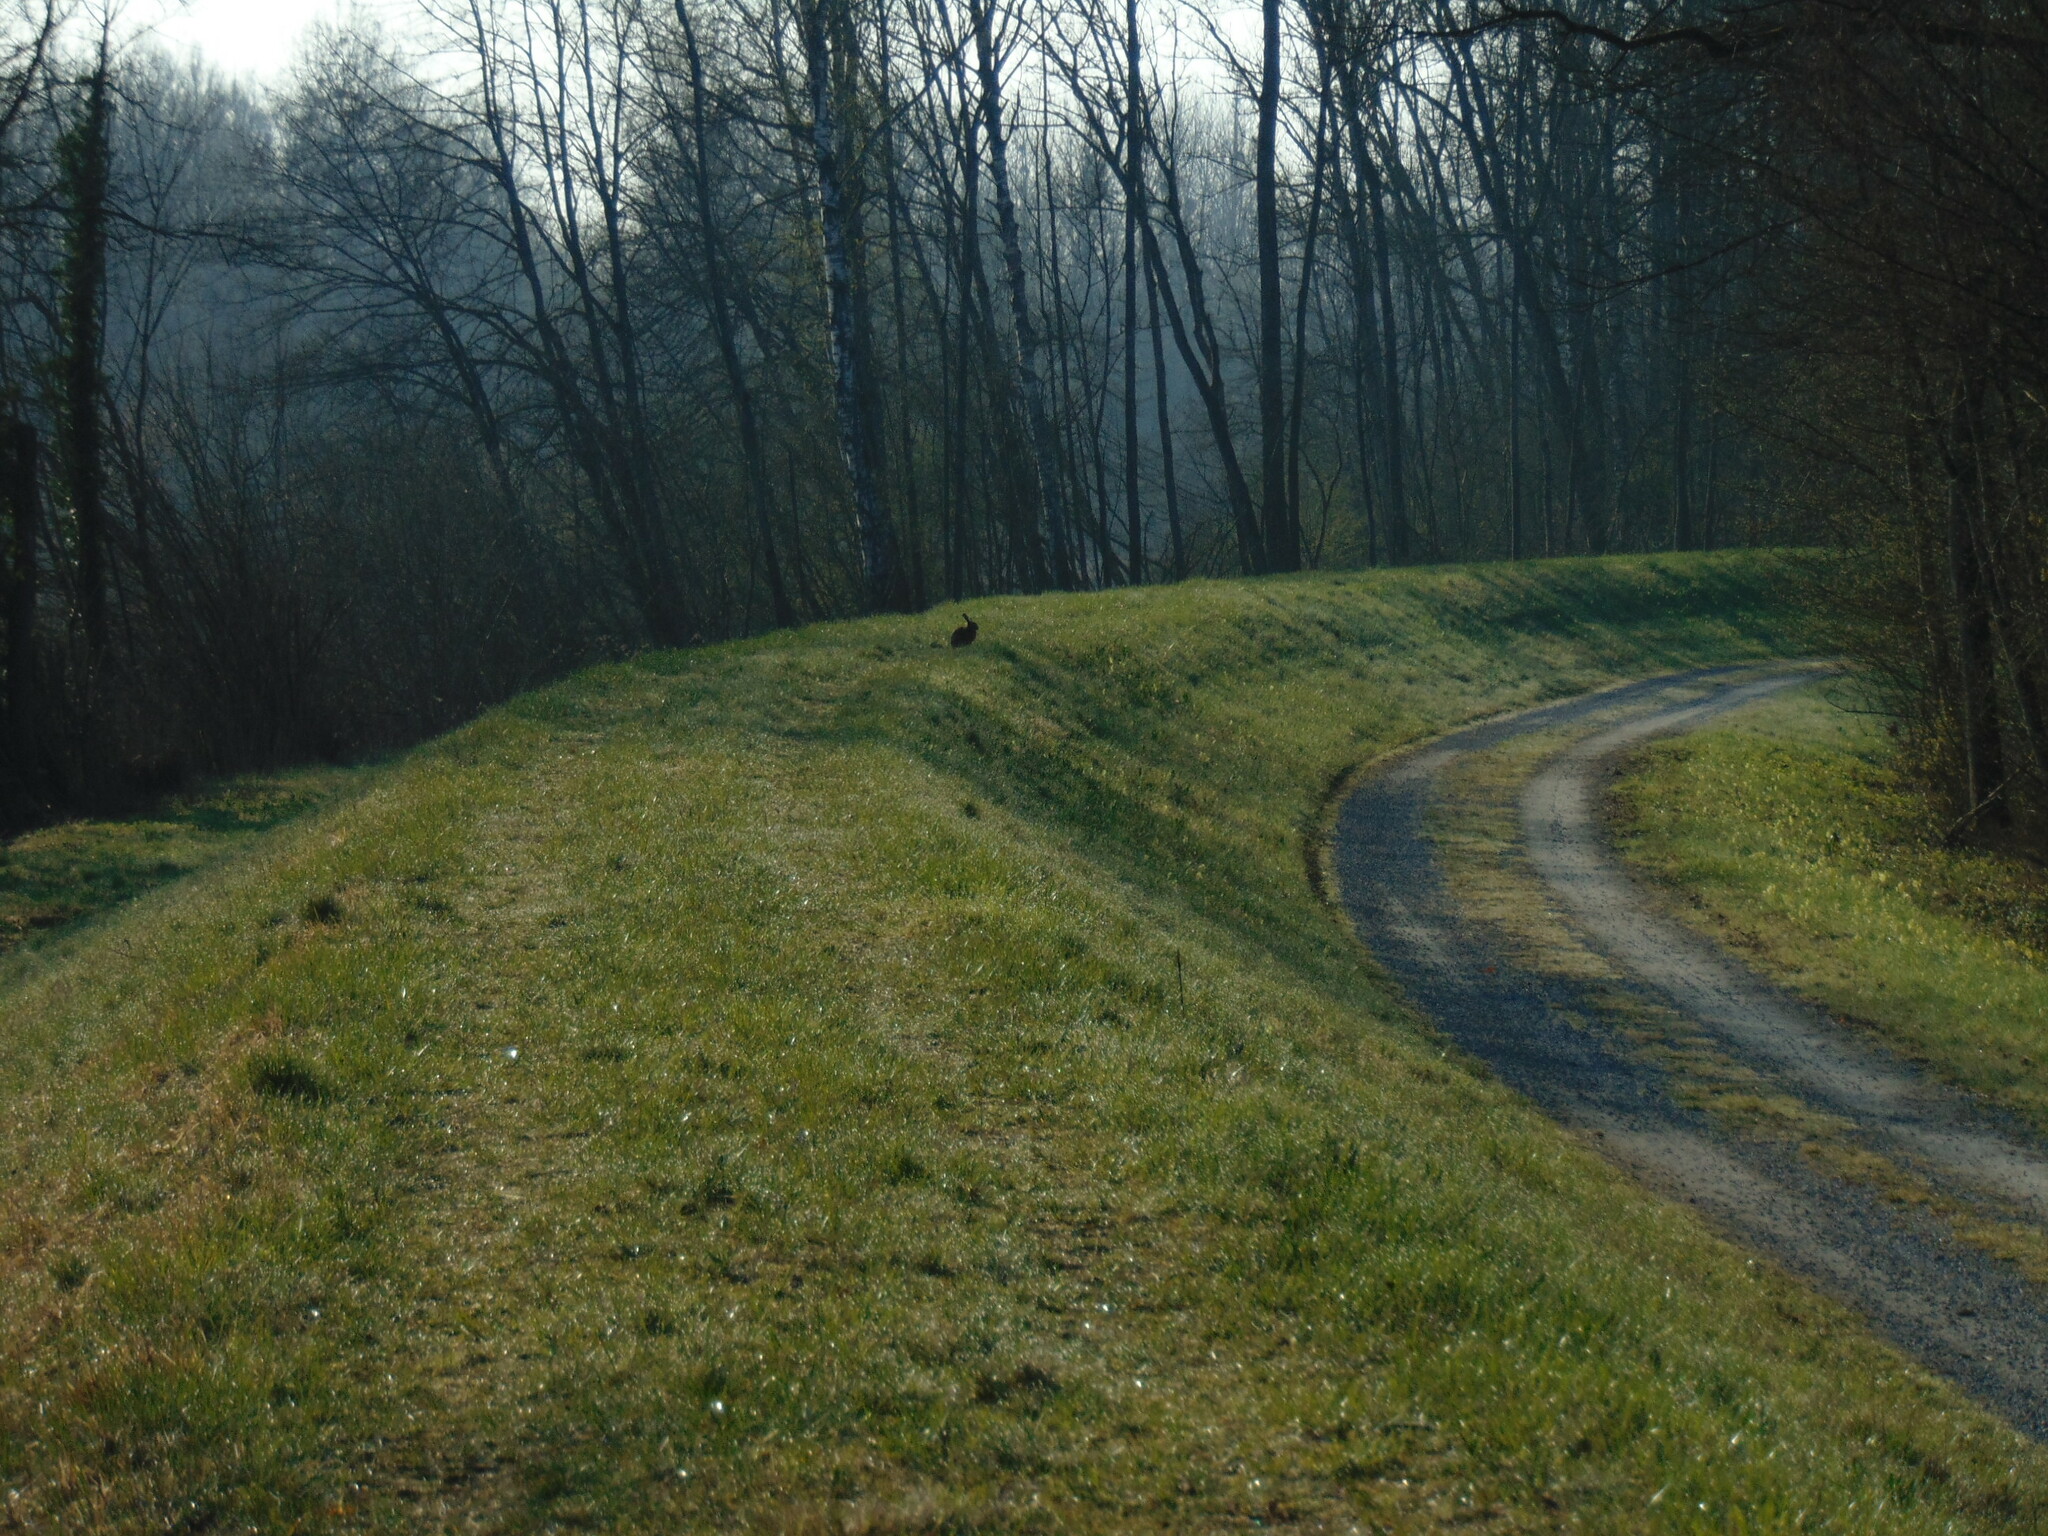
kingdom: Animalia
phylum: Chordata
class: Mammalia
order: Lagomorpha
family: Leporidae
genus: Lepus
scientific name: Lepus europaeus
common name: European hare
